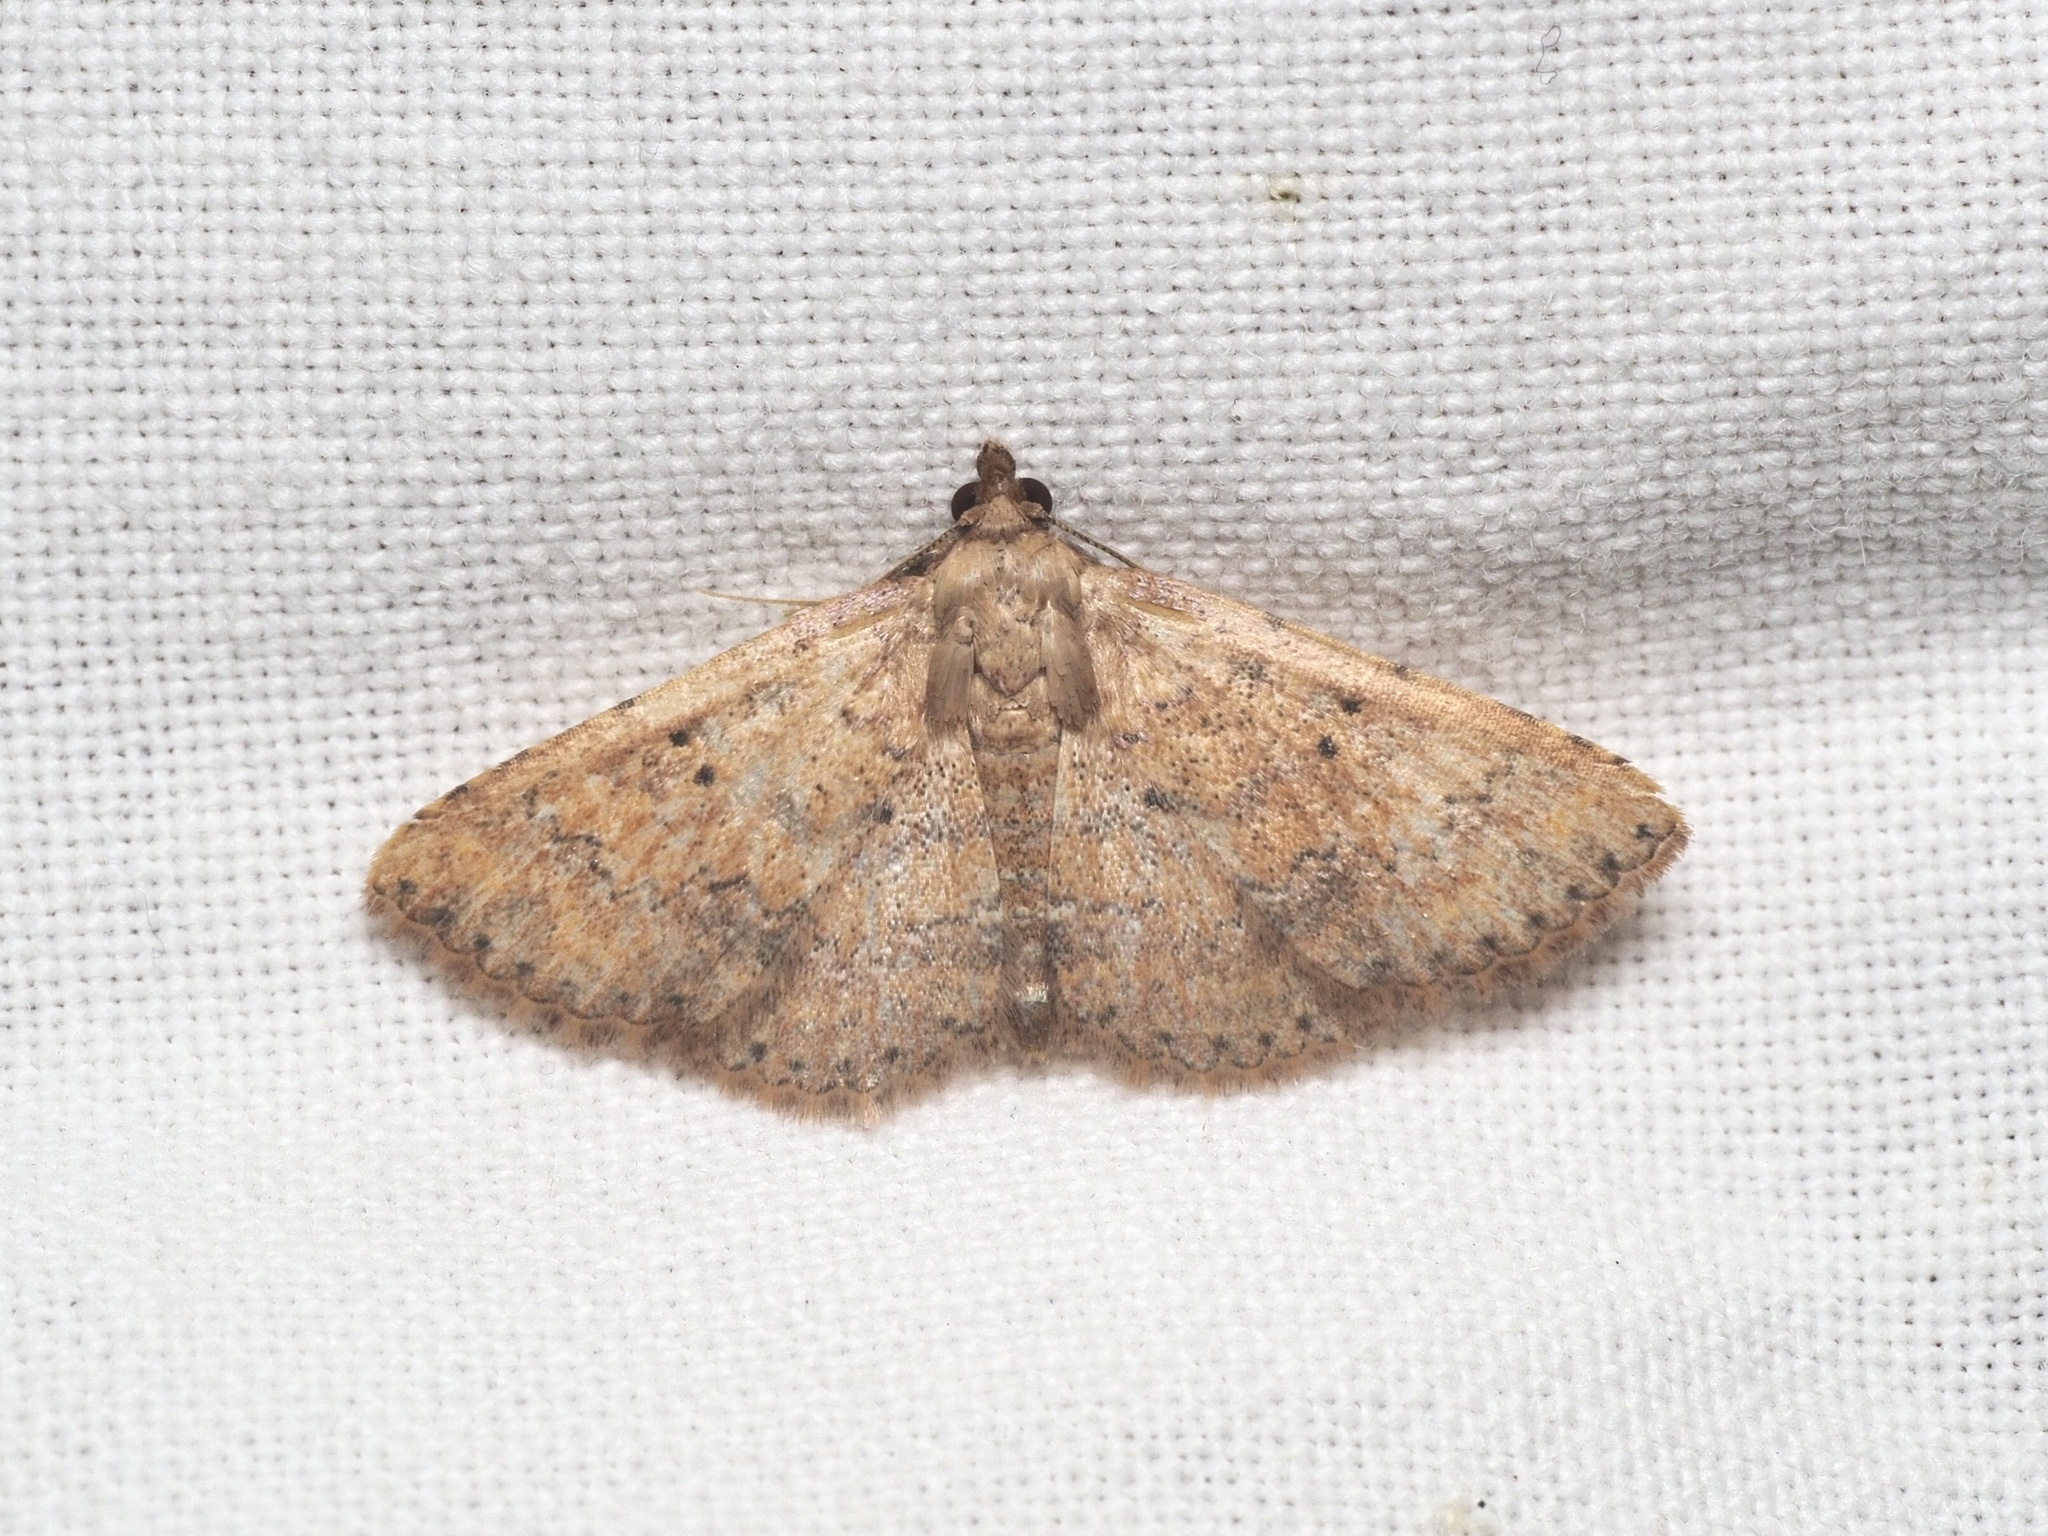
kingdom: Animalia
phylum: Arthropoda
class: Insecta
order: Lepidoptera
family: Noctuidae
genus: Cerynea
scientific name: Cerynea thermesialis
